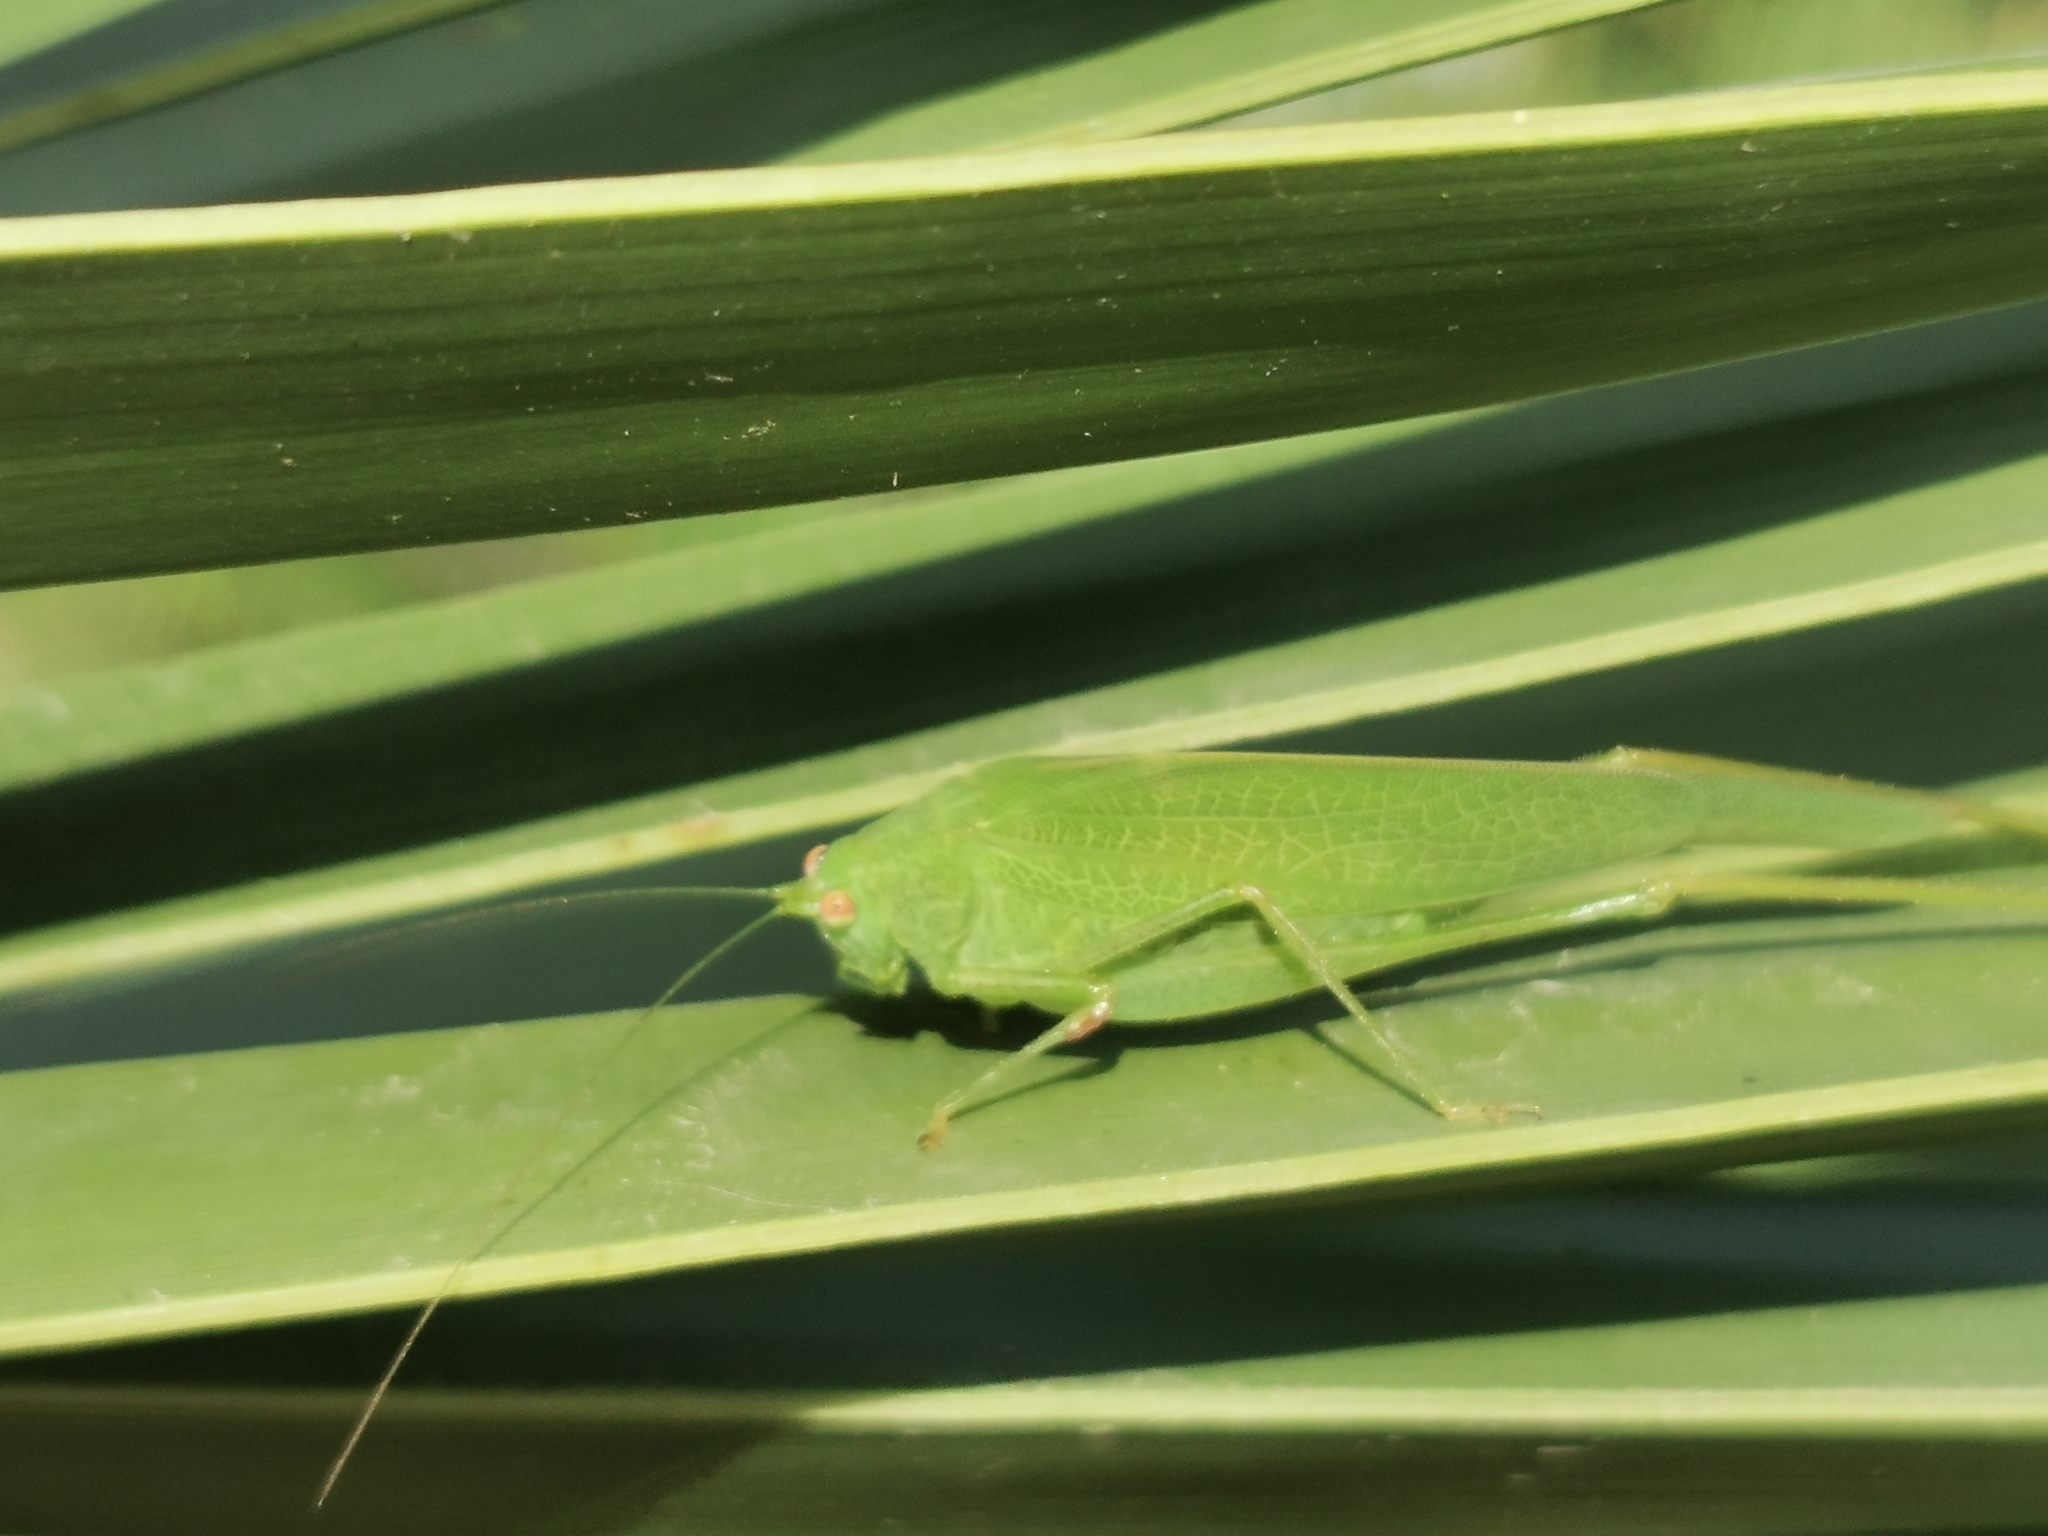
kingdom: Animalia
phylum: Arthropoda
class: Insecta
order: Orthoptera
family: Tettigoniidae
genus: Phaneroptera
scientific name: Phaneroptera nana
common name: Southern sickle bush-cricket
